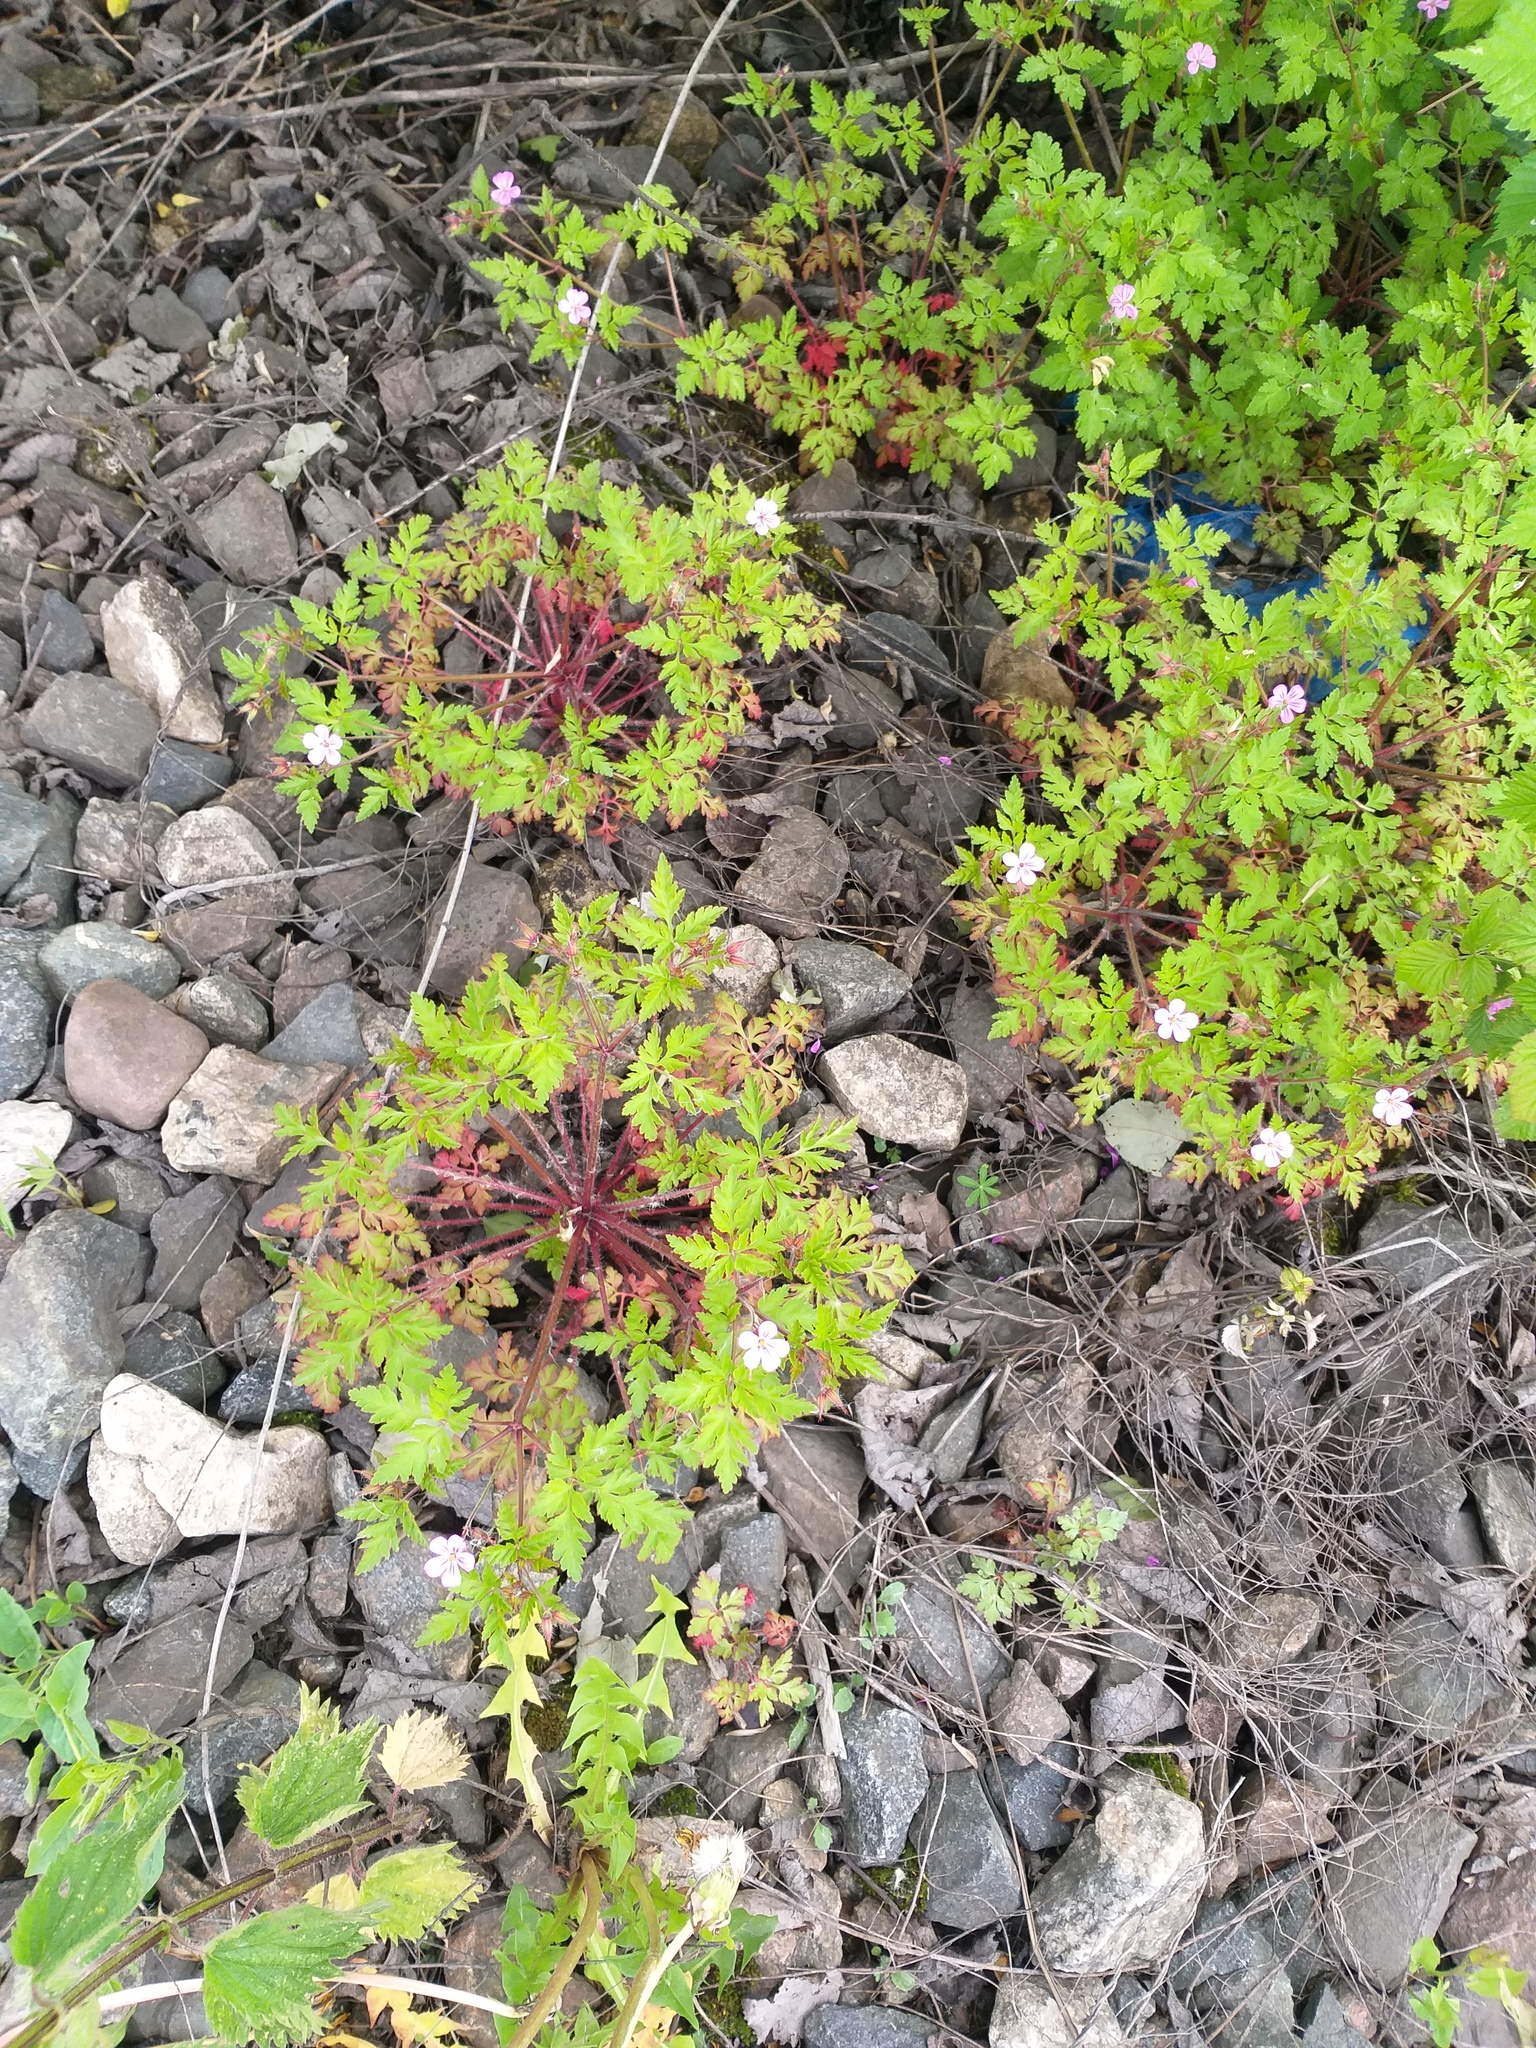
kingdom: Plantae
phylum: Tracheophyta
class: Magnoliopsida
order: Geraniales
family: Geraniaceae
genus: Geranium
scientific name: Geranium robertianum
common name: Herb-robert
